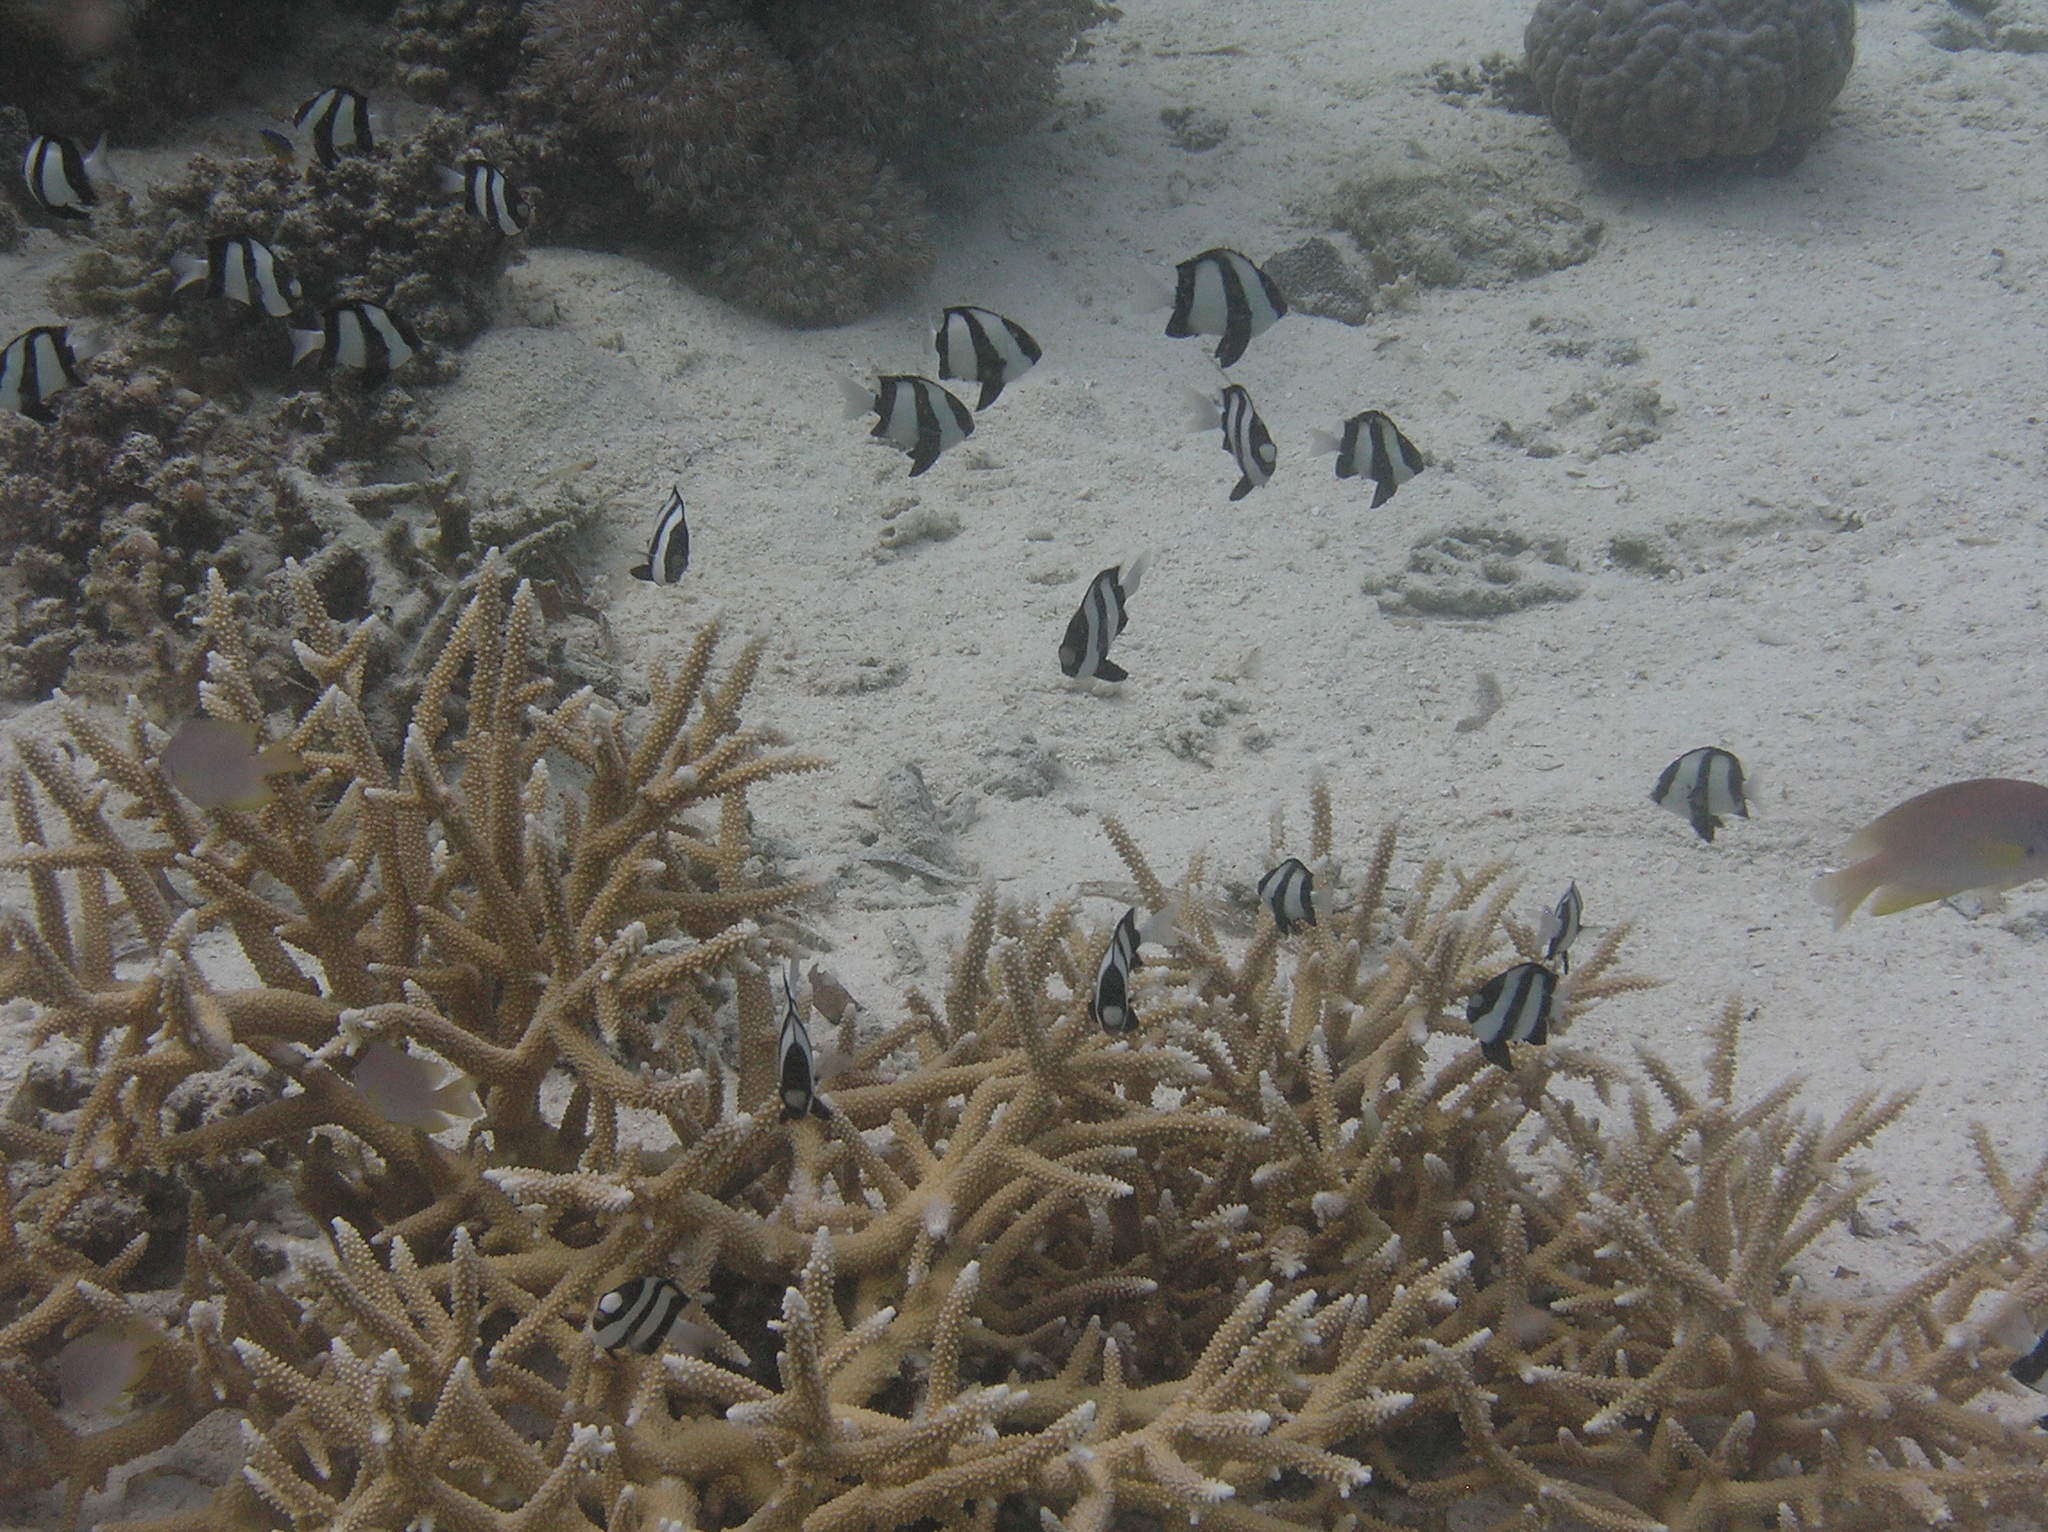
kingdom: Animalia
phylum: Chordata
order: Perciformes
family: Pomacentridae
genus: Dascyllus
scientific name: Dascyllus aruanus
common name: Humbug dascyllus
